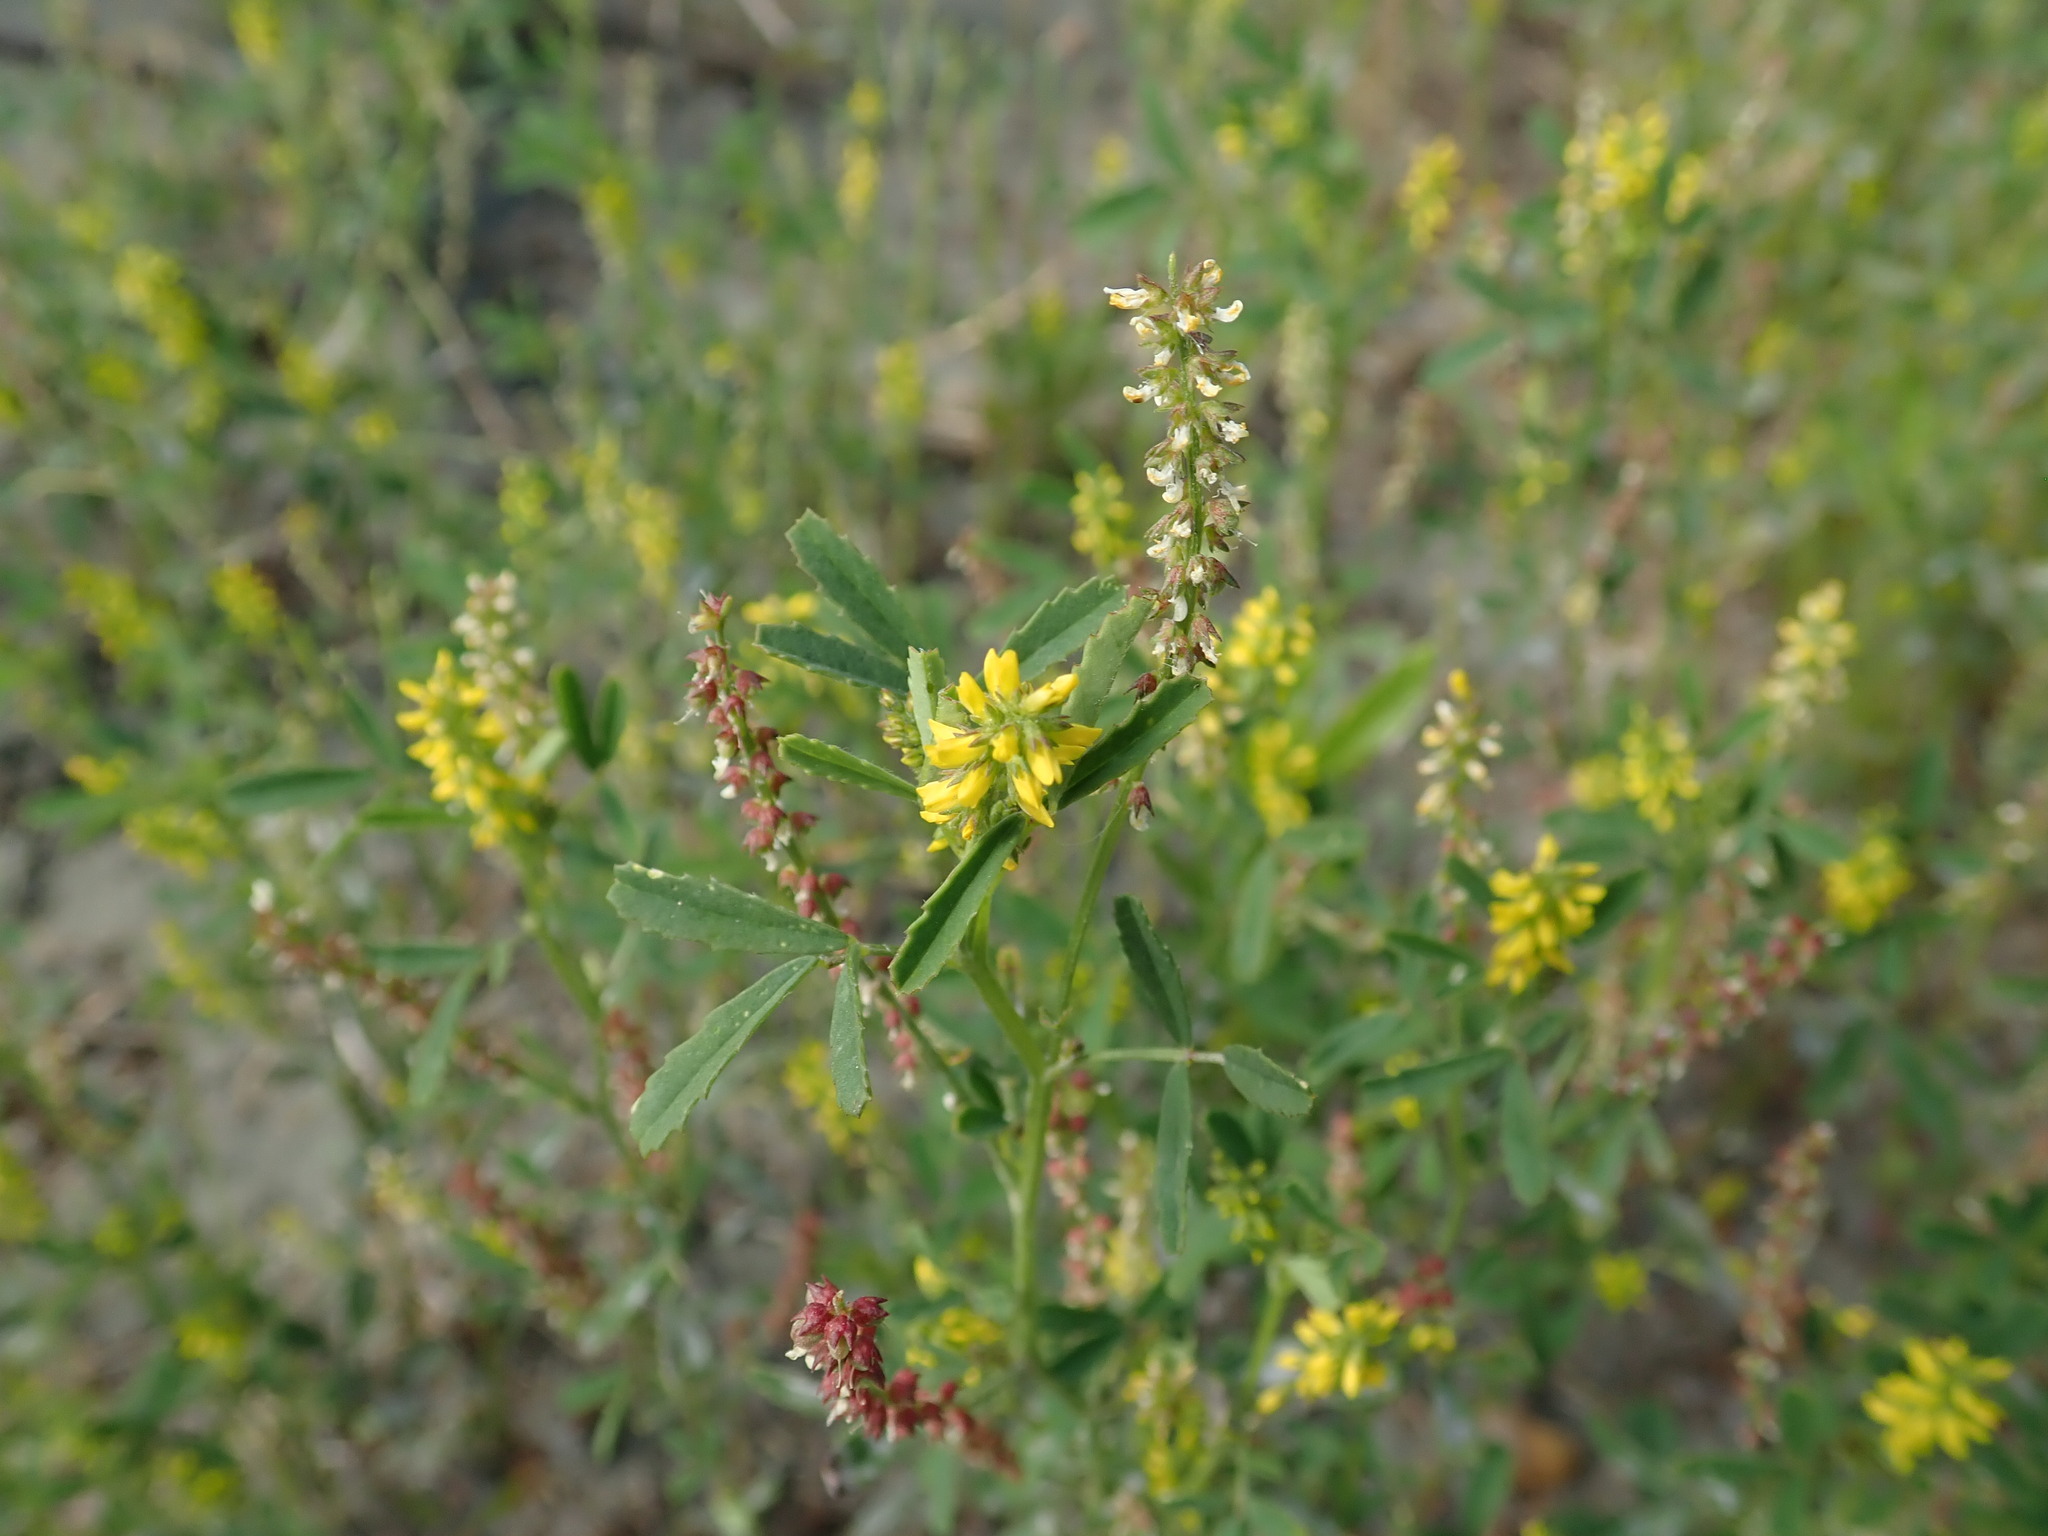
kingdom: Plantae
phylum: Tracheophyta
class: Magnoliopsida
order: Fabales
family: Fabaceae
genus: Melilotus
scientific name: Melilotus indicus
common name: Small melilot
